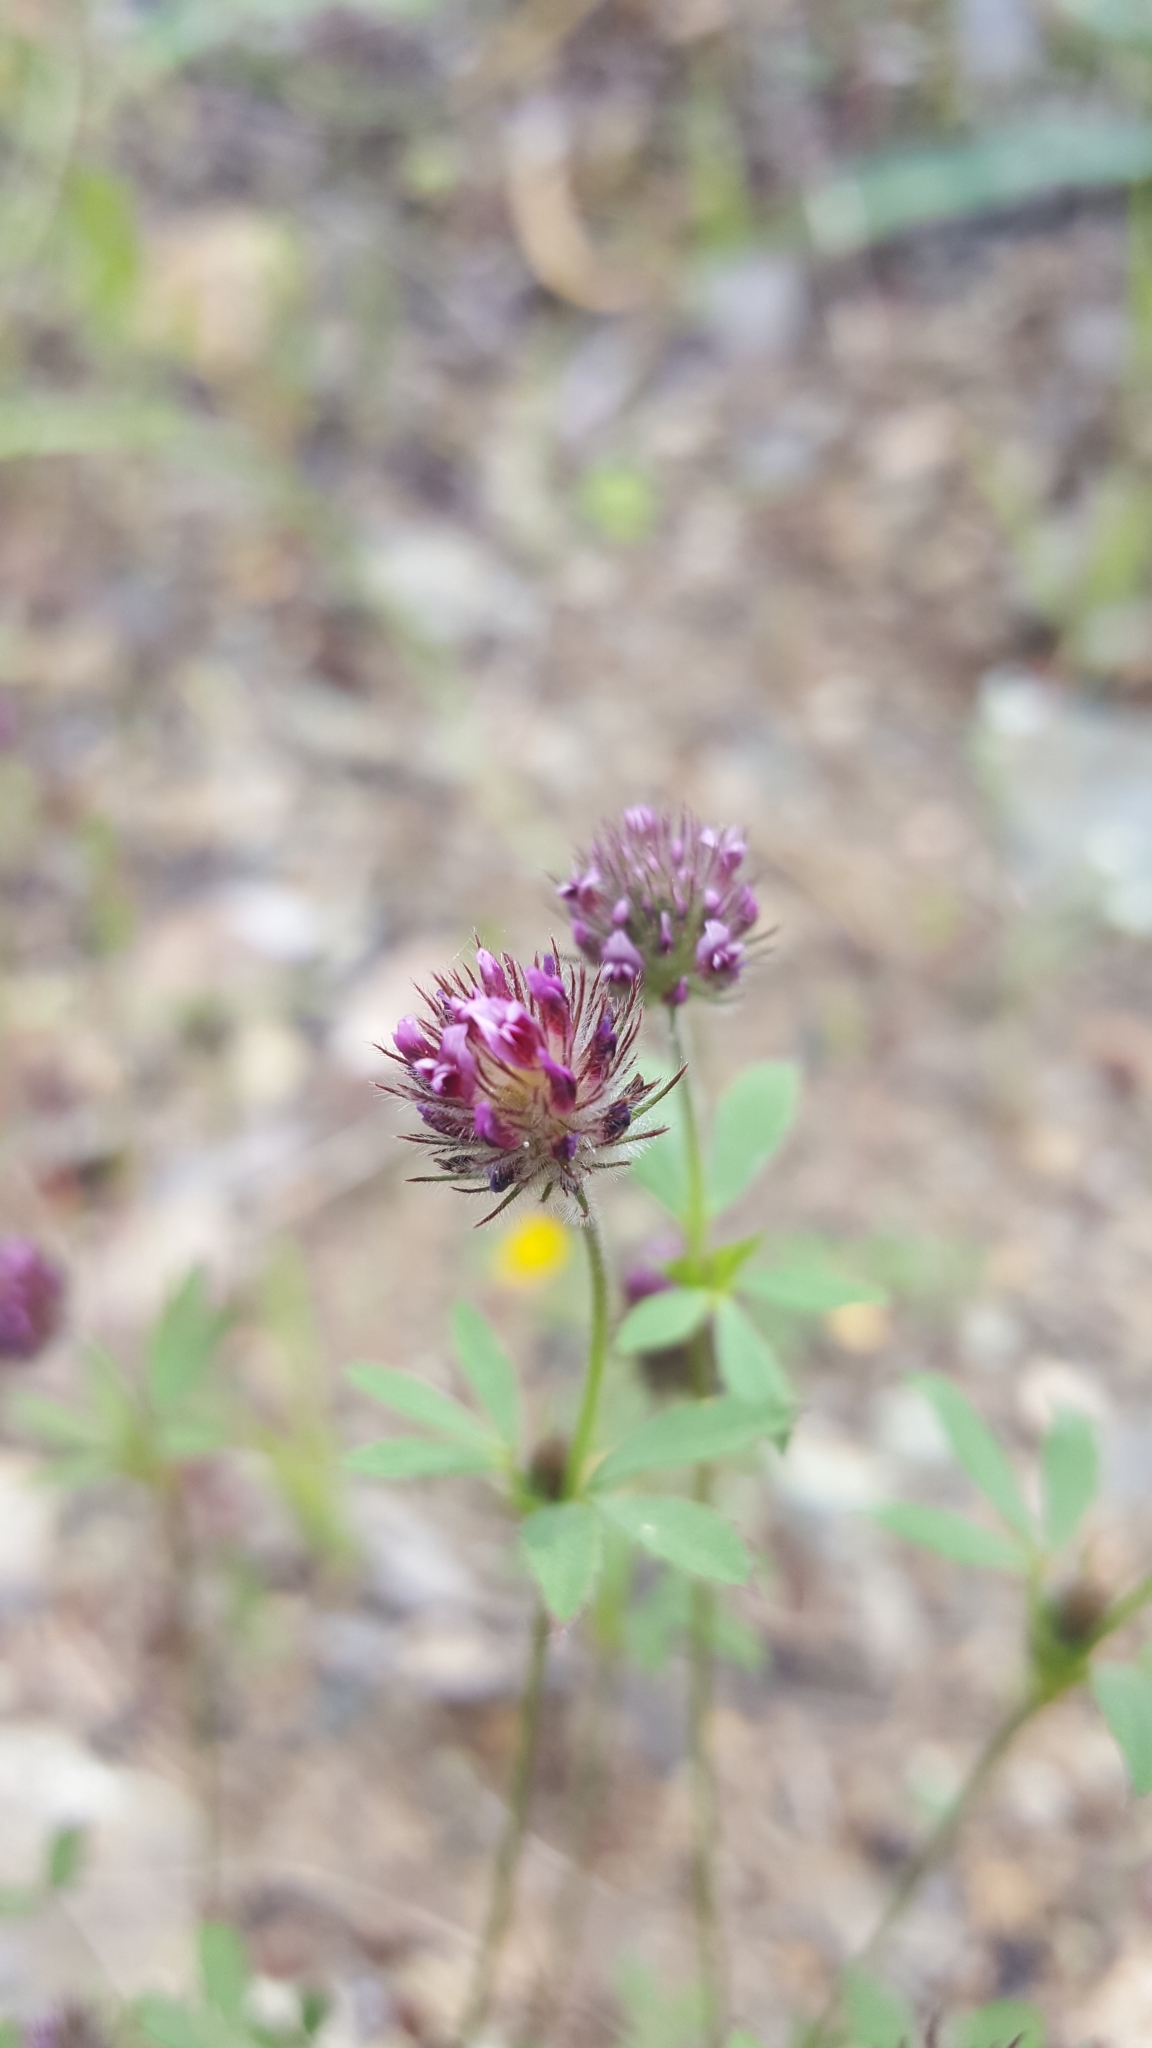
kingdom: Plantae
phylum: Tracheophyta
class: Magnoliopsida
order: Fabales
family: Fabaceae
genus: Trifolium
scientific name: Trifolium albopurpureum
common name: Rancheria clover
